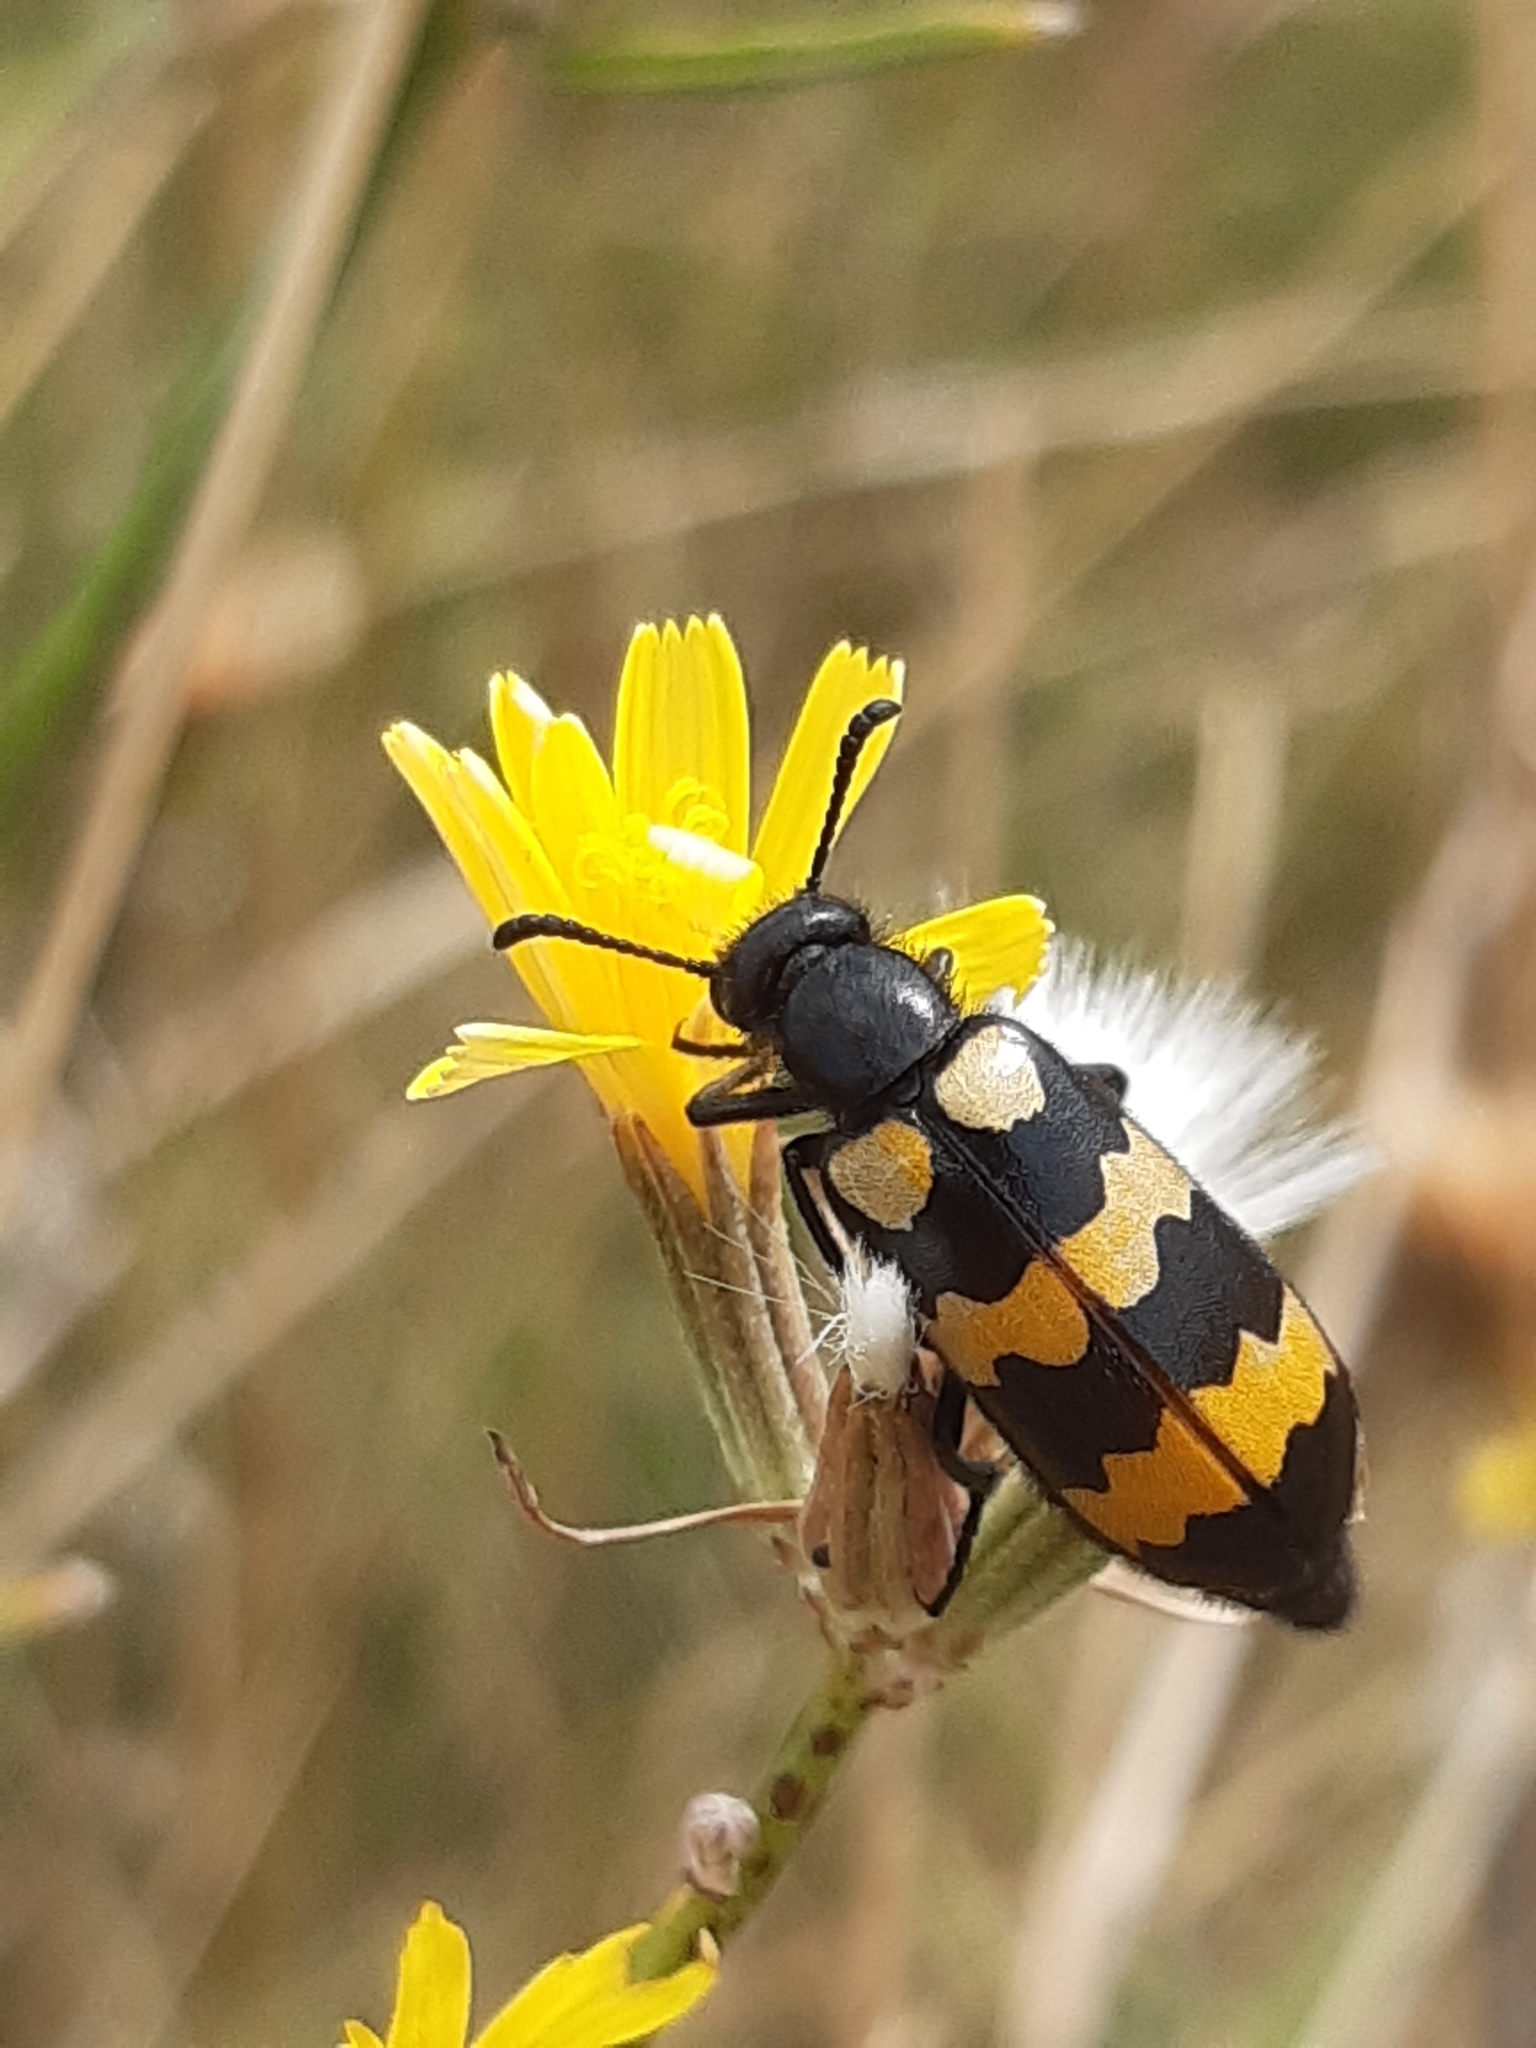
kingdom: Animalia
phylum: Arthropoda
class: Insecta
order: Coleoptera
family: Meloidae
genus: Mylabris
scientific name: Mylabris variabilis
